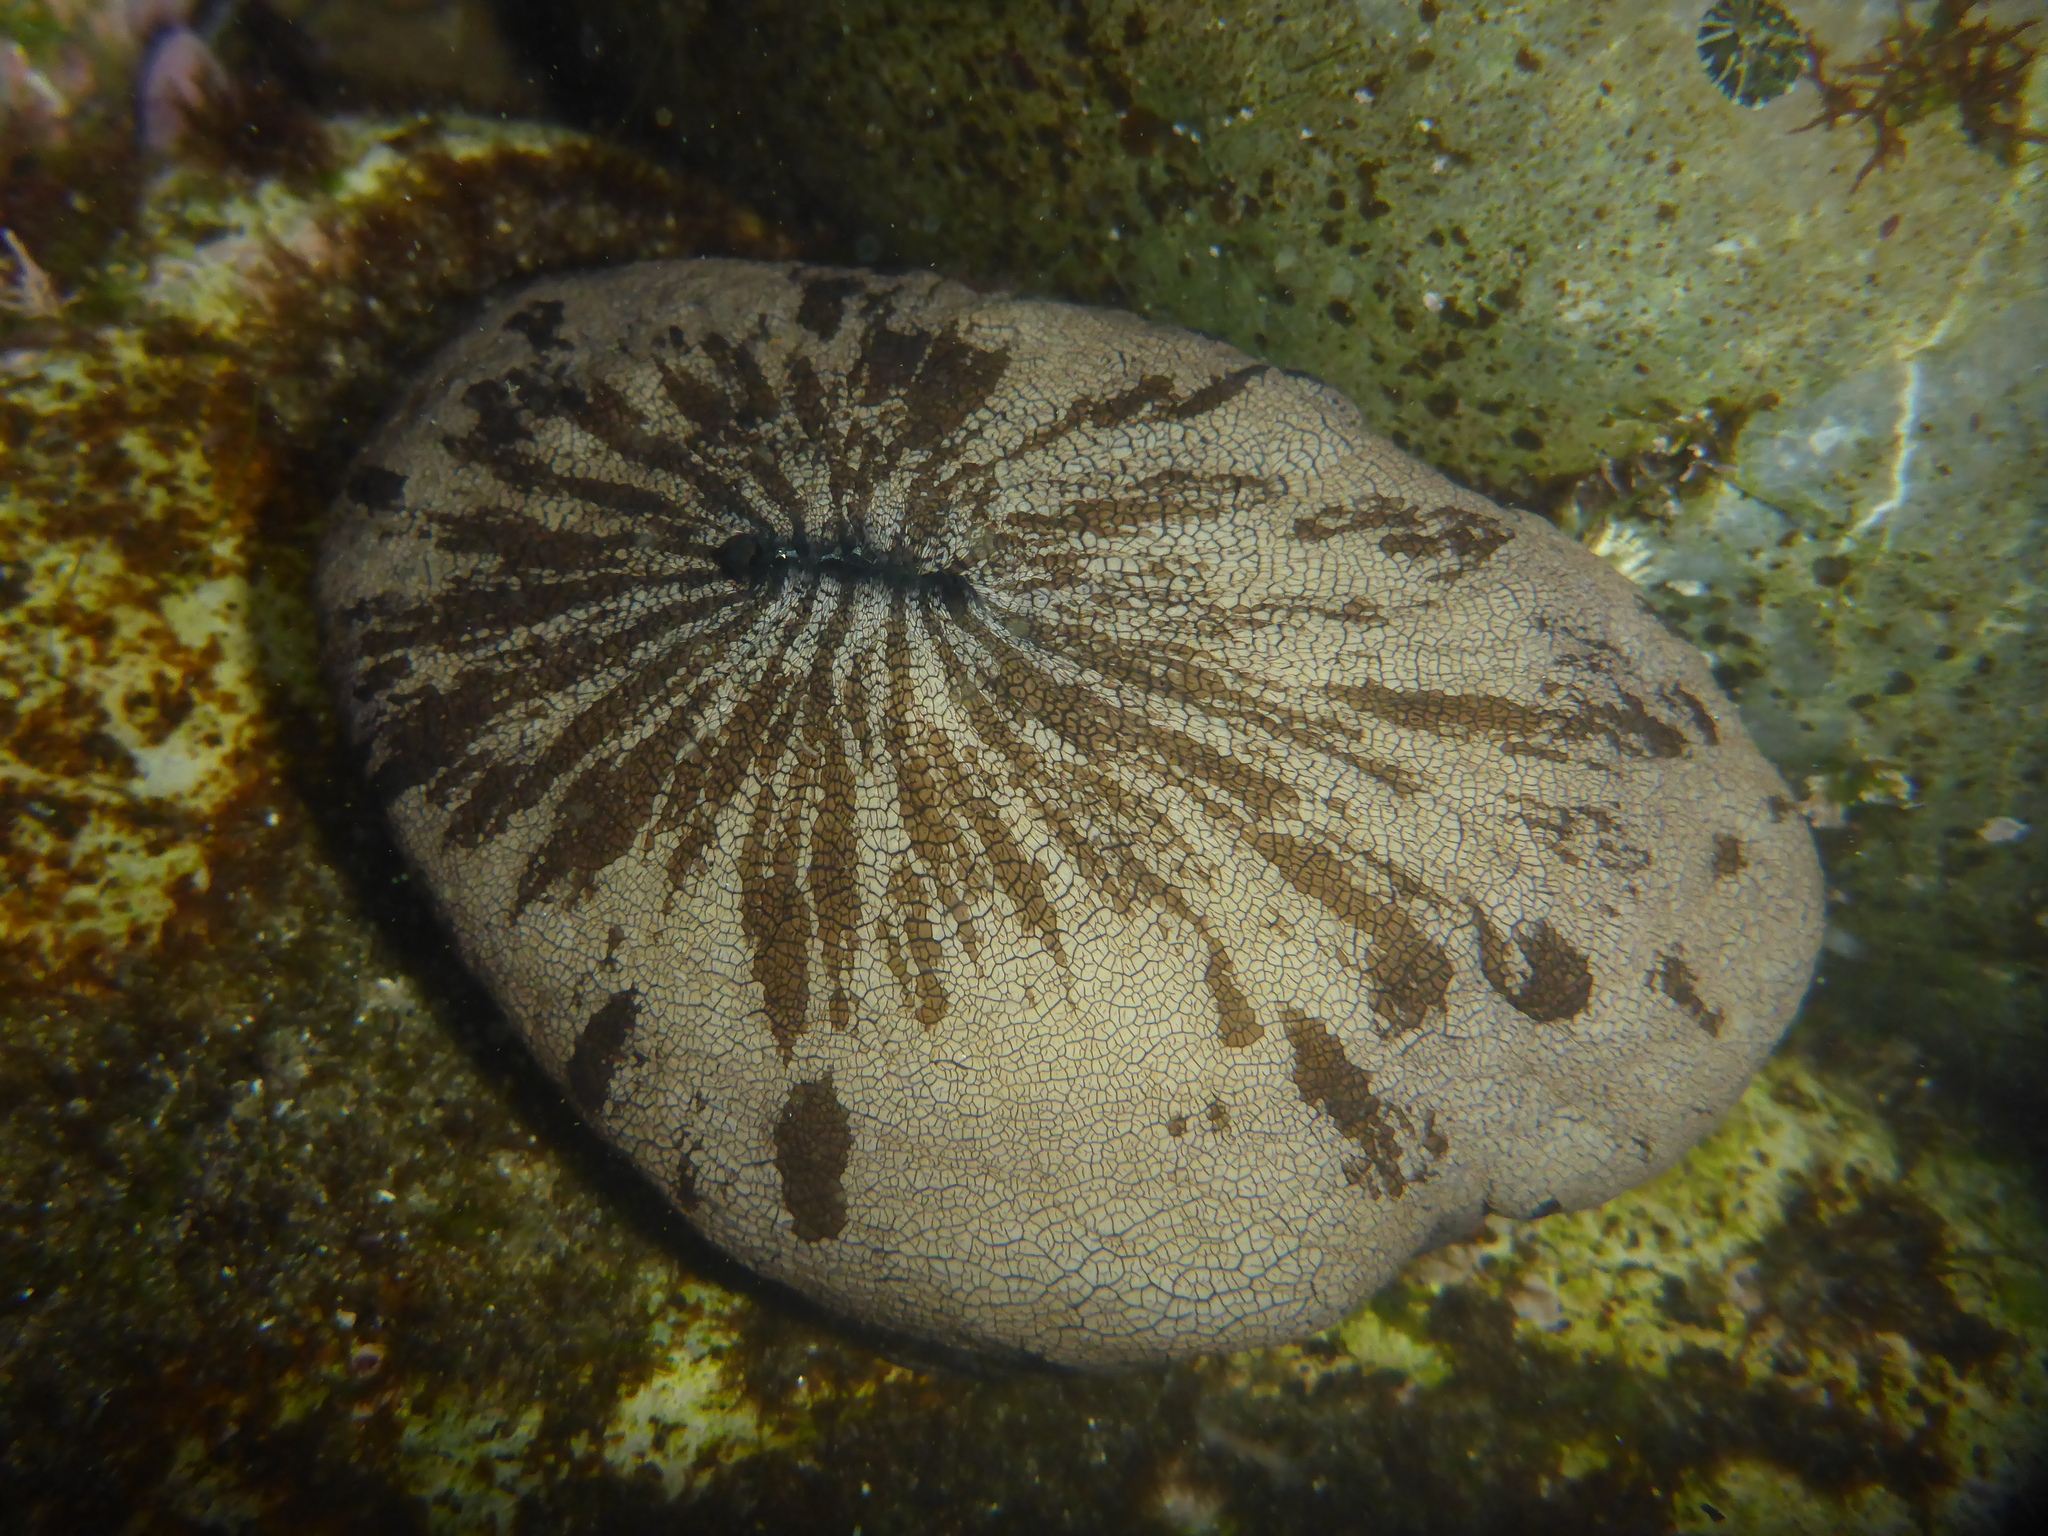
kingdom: Animalia
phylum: Mollusca
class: Gastropoda
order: Lepetellida
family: Fissurellidae
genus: Megathura
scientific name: Megathura crenulata
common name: Giant keyhole limpet
